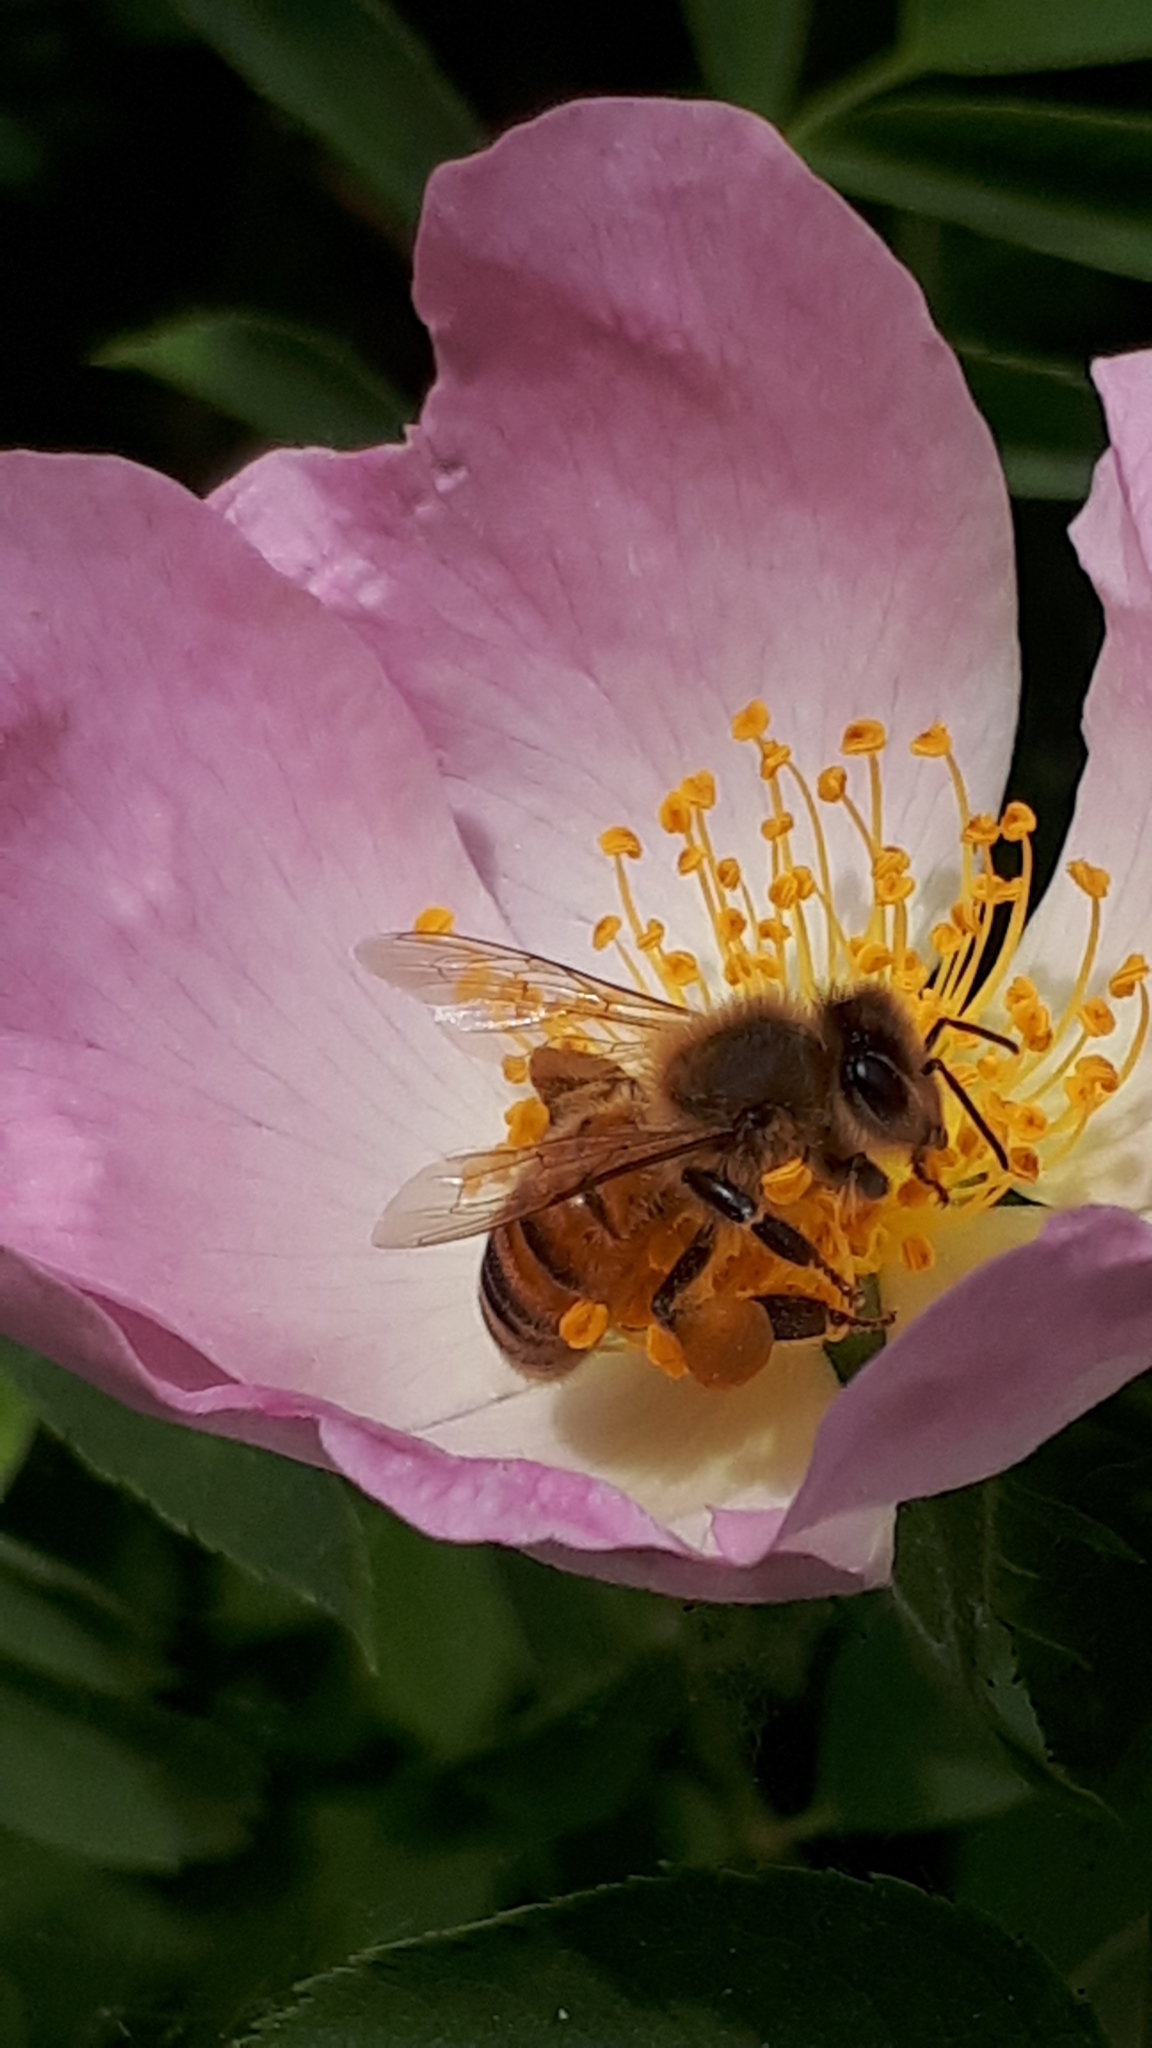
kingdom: Animalia
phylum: Arthropoda
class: Insecta
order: Hymenoptera
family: Apidae
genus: Apis
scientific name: Apis mellifera
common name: Honey bee
